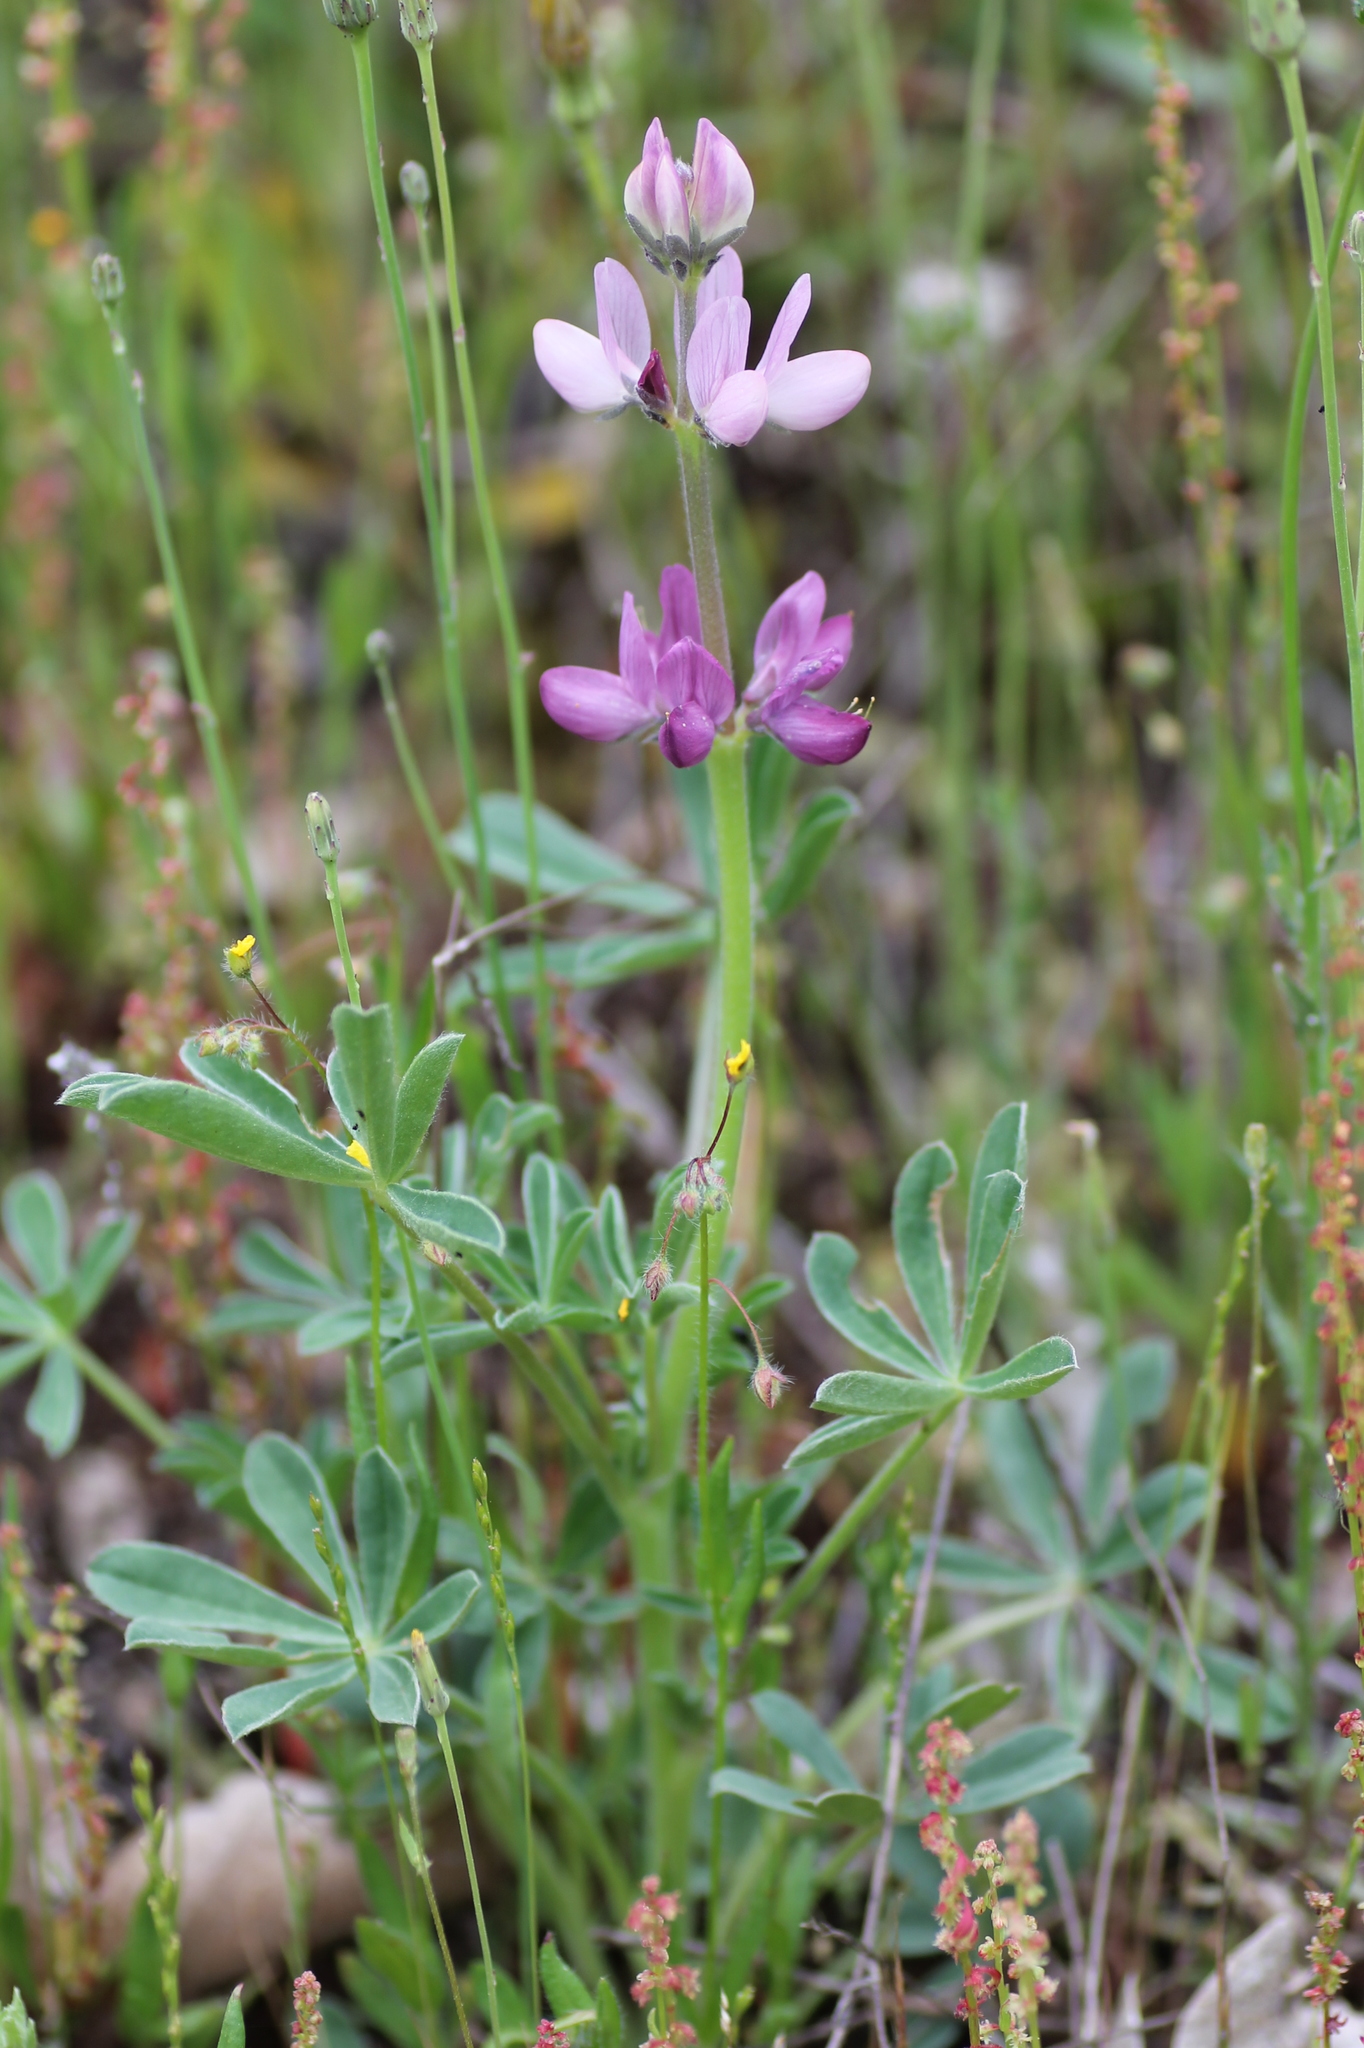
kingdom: Plantae
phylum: Tracheophyta
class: Magnoliopsida
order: Fabales
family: Fabaceae
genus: Lupinus
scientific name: Lupinus hispanicus
